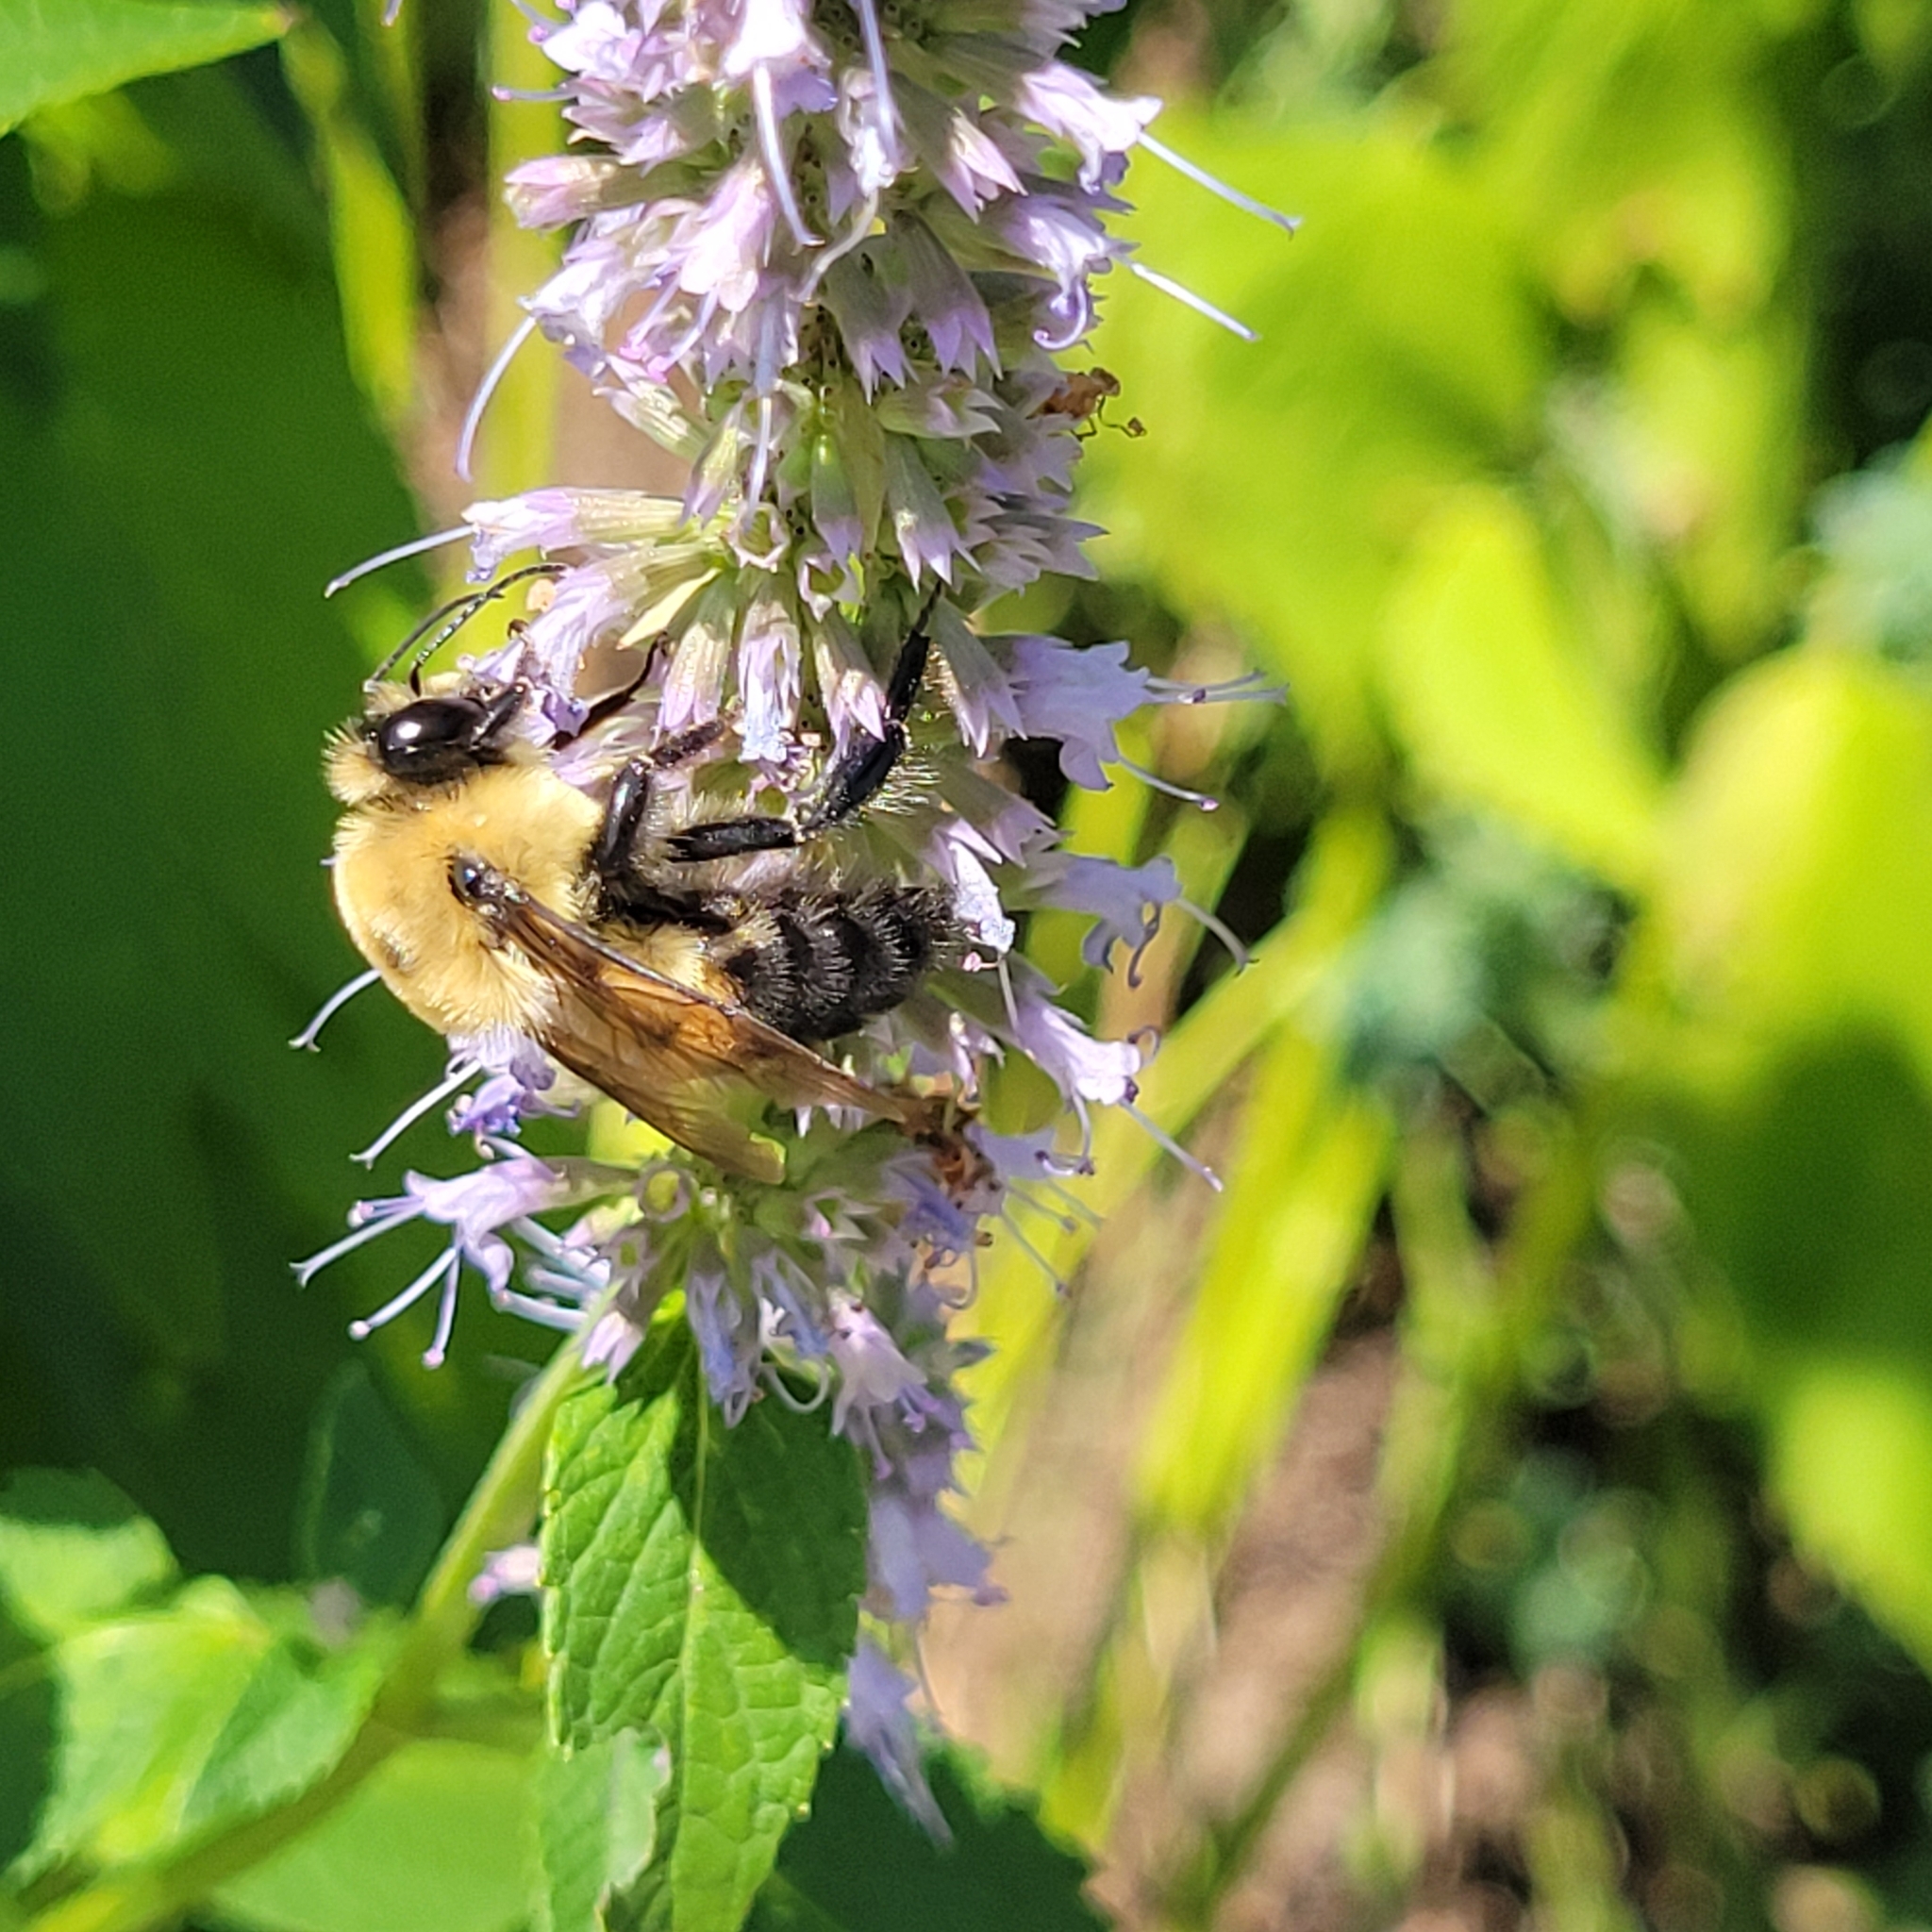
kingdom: Animalia
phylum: Arthropoda
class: Insecta
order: Hymenoptera
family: Apidae
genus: Bombus
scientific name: Bombus griseocollis
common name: Brown-belted bumble bee
